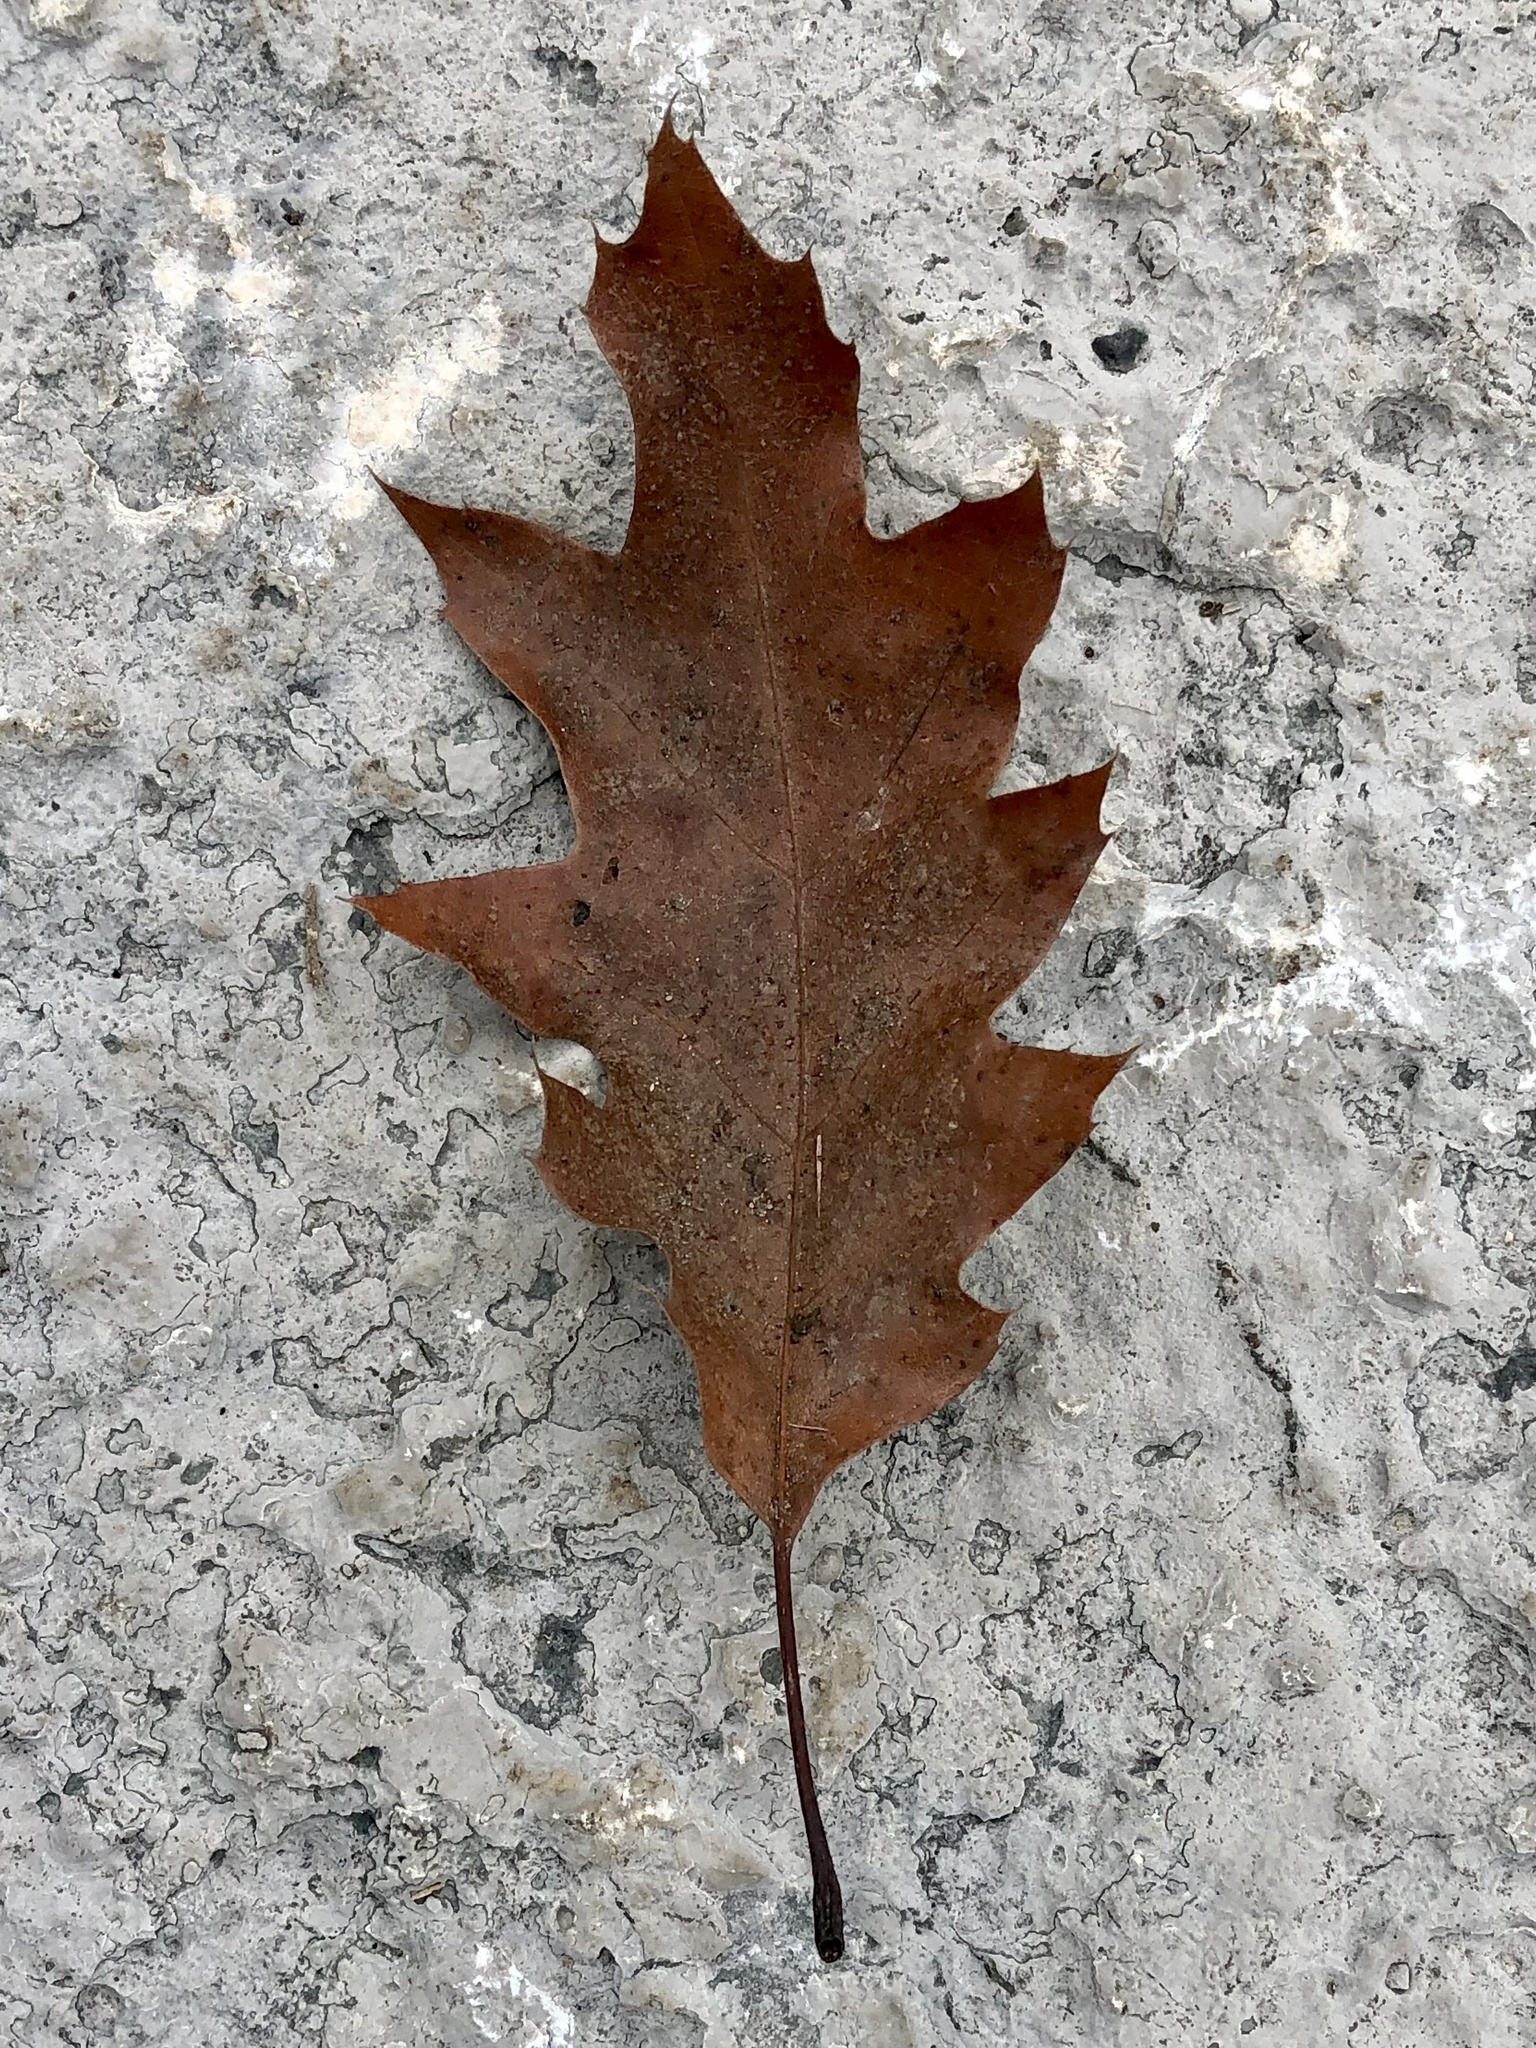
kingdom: Plantae
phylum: Tracheophyta
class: Magnoliopsida
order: Fagales
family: Fagaceae
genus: Quercus
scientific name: Quercus rubra
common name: Red oak
